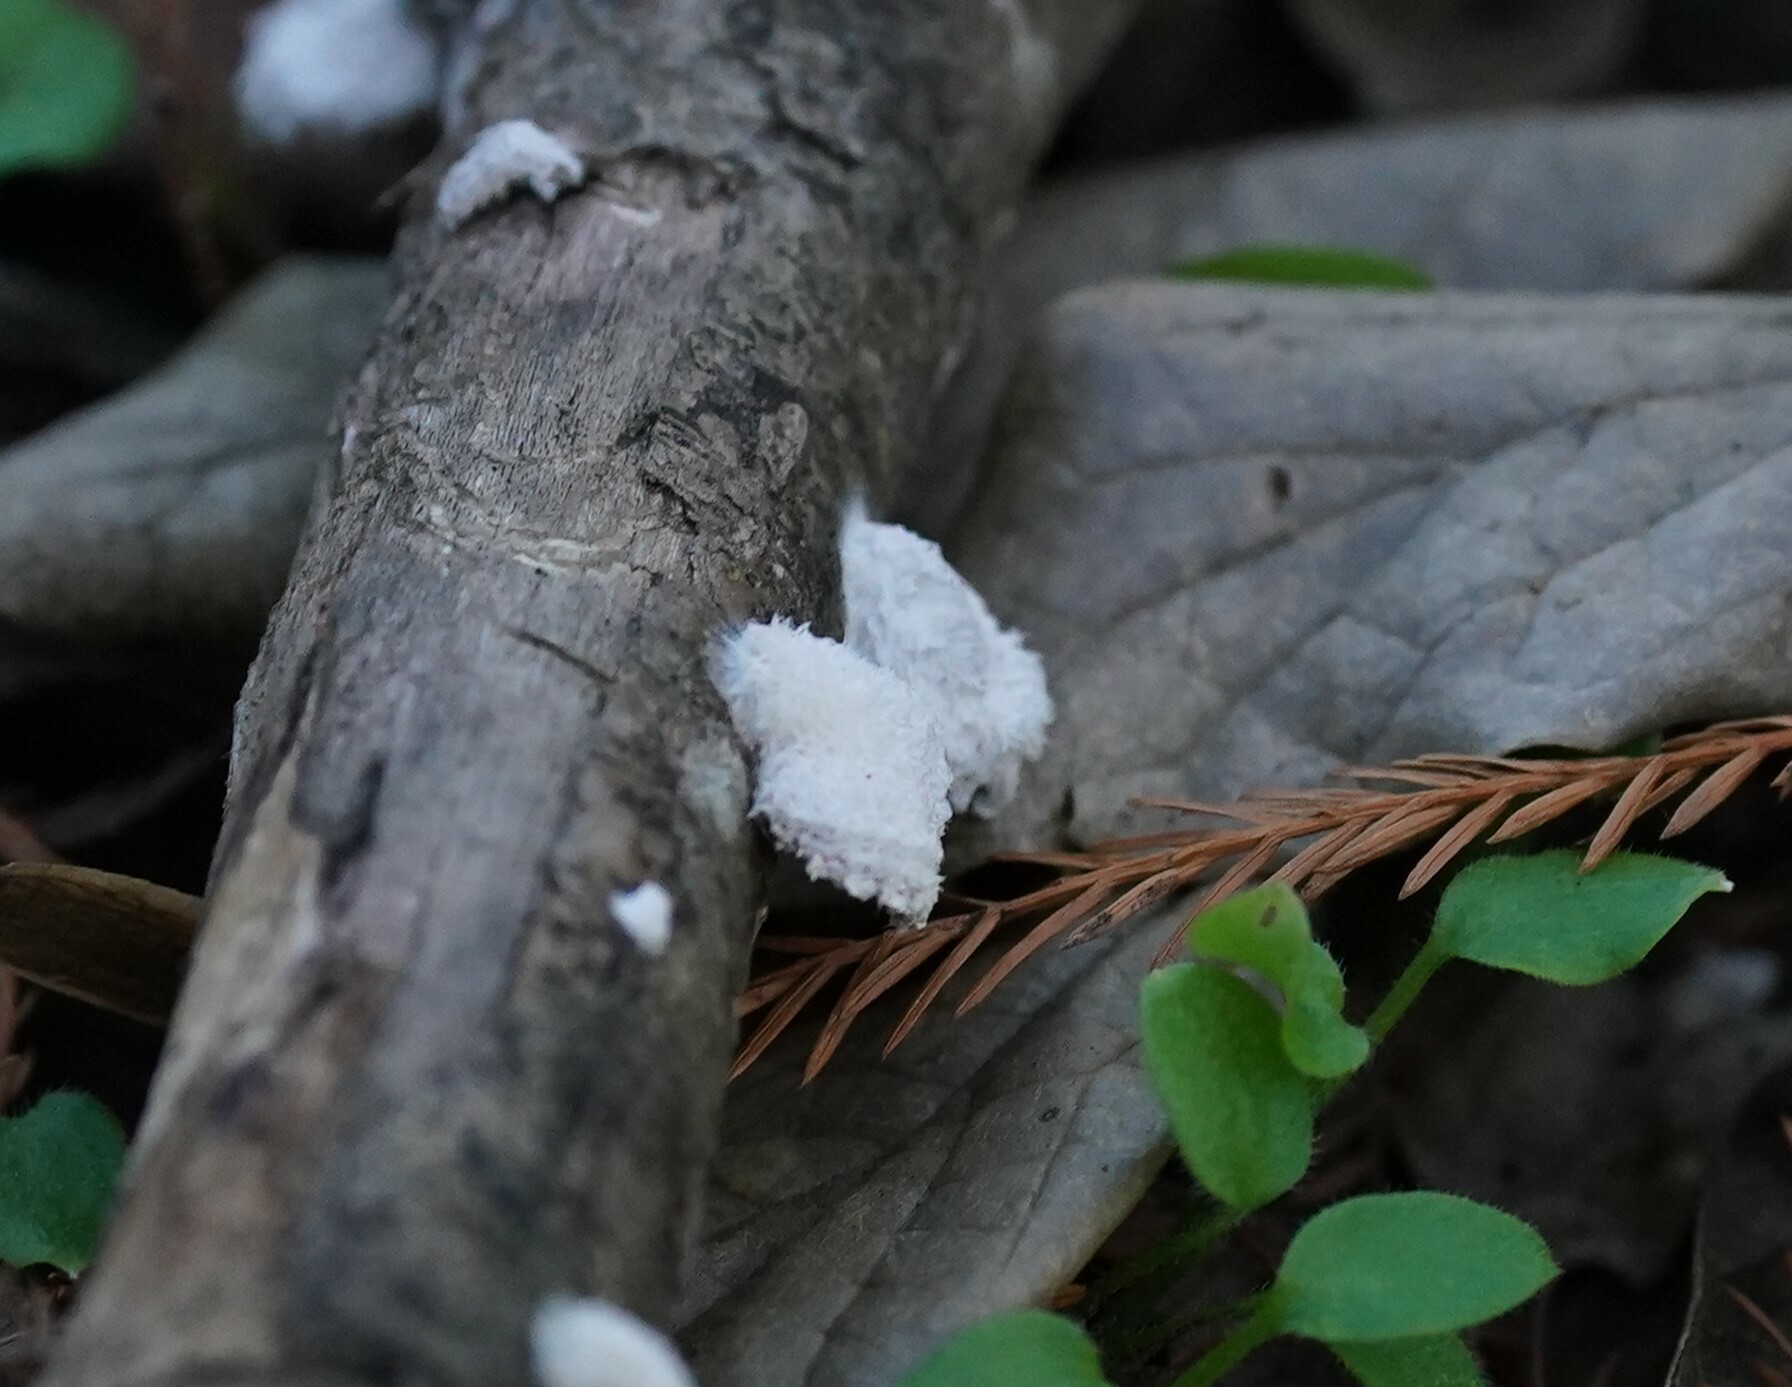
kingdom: Fungi
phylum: Basidiomycota
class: Agaricomycetes
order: Agaricales
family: Schizophyllaceae
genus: Schizophyllum
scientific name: Schizophyllum commune
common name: Common porecrust
